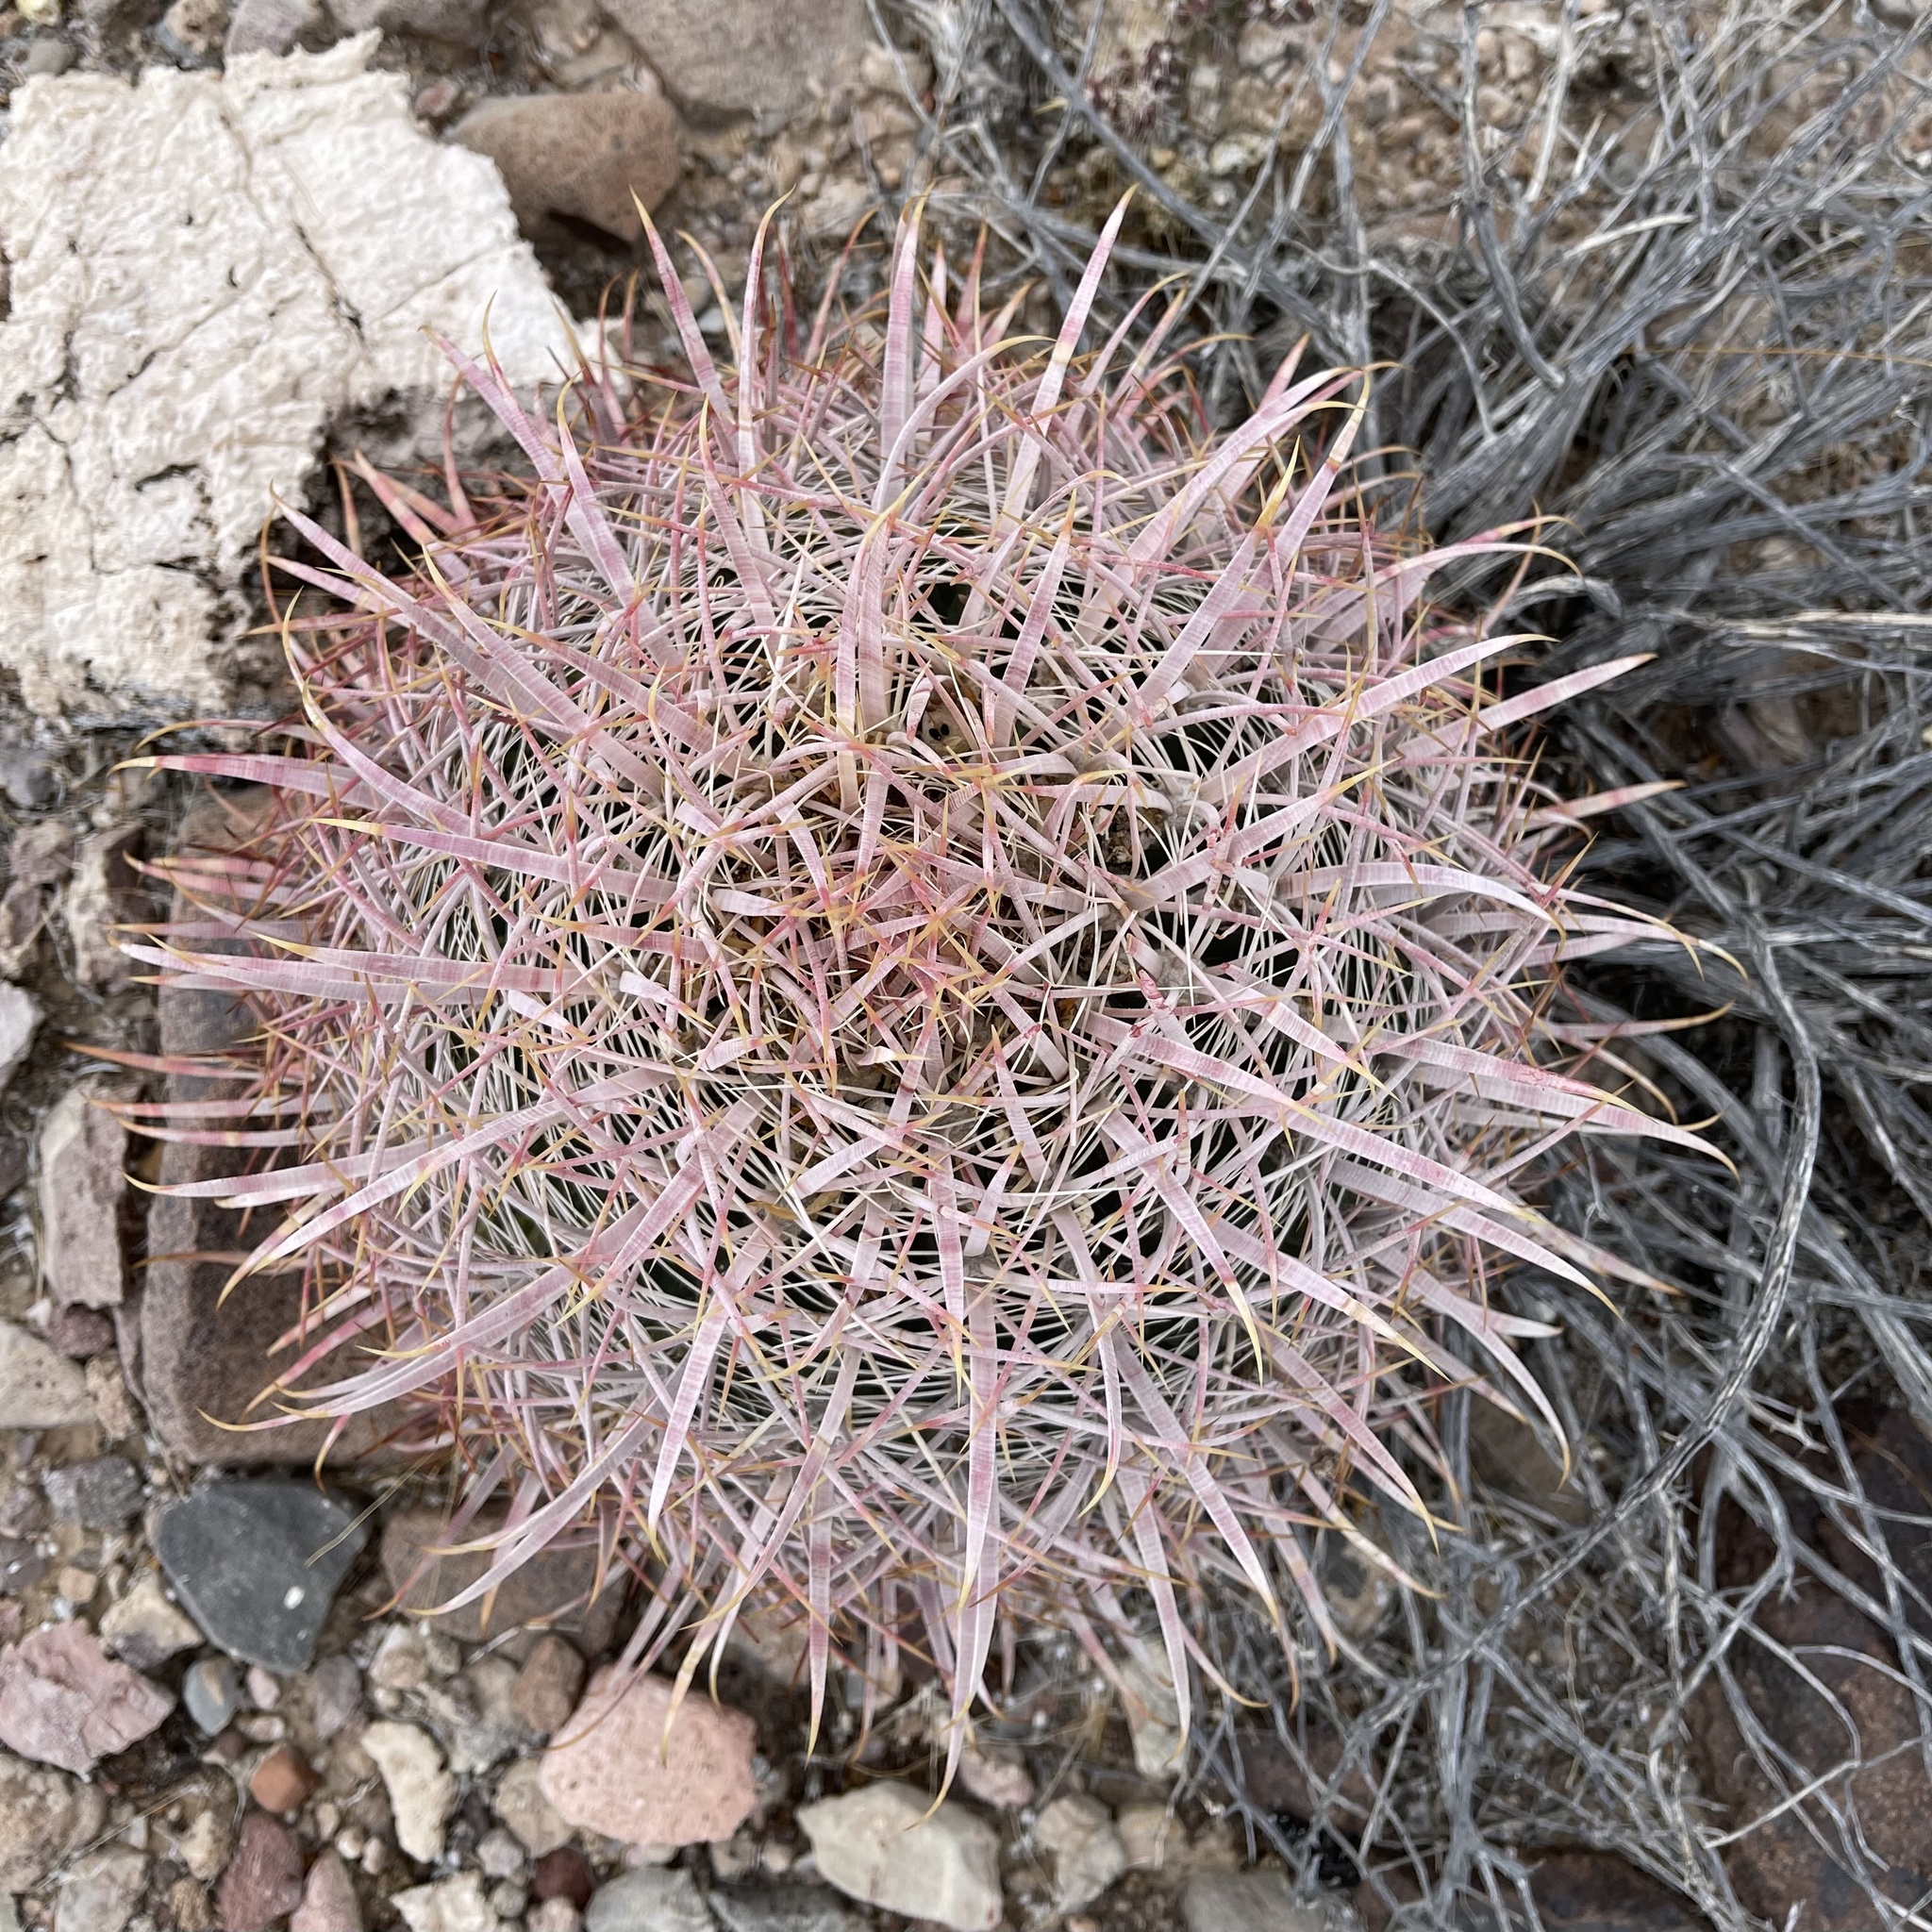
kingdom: Plantae
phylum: Tracheophyta
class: Magnoliopsida
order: Caryophyllales
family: Cactaceae
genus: Ferocactus
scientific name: Ferocactus cylindraceus
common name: California barrel cactus
